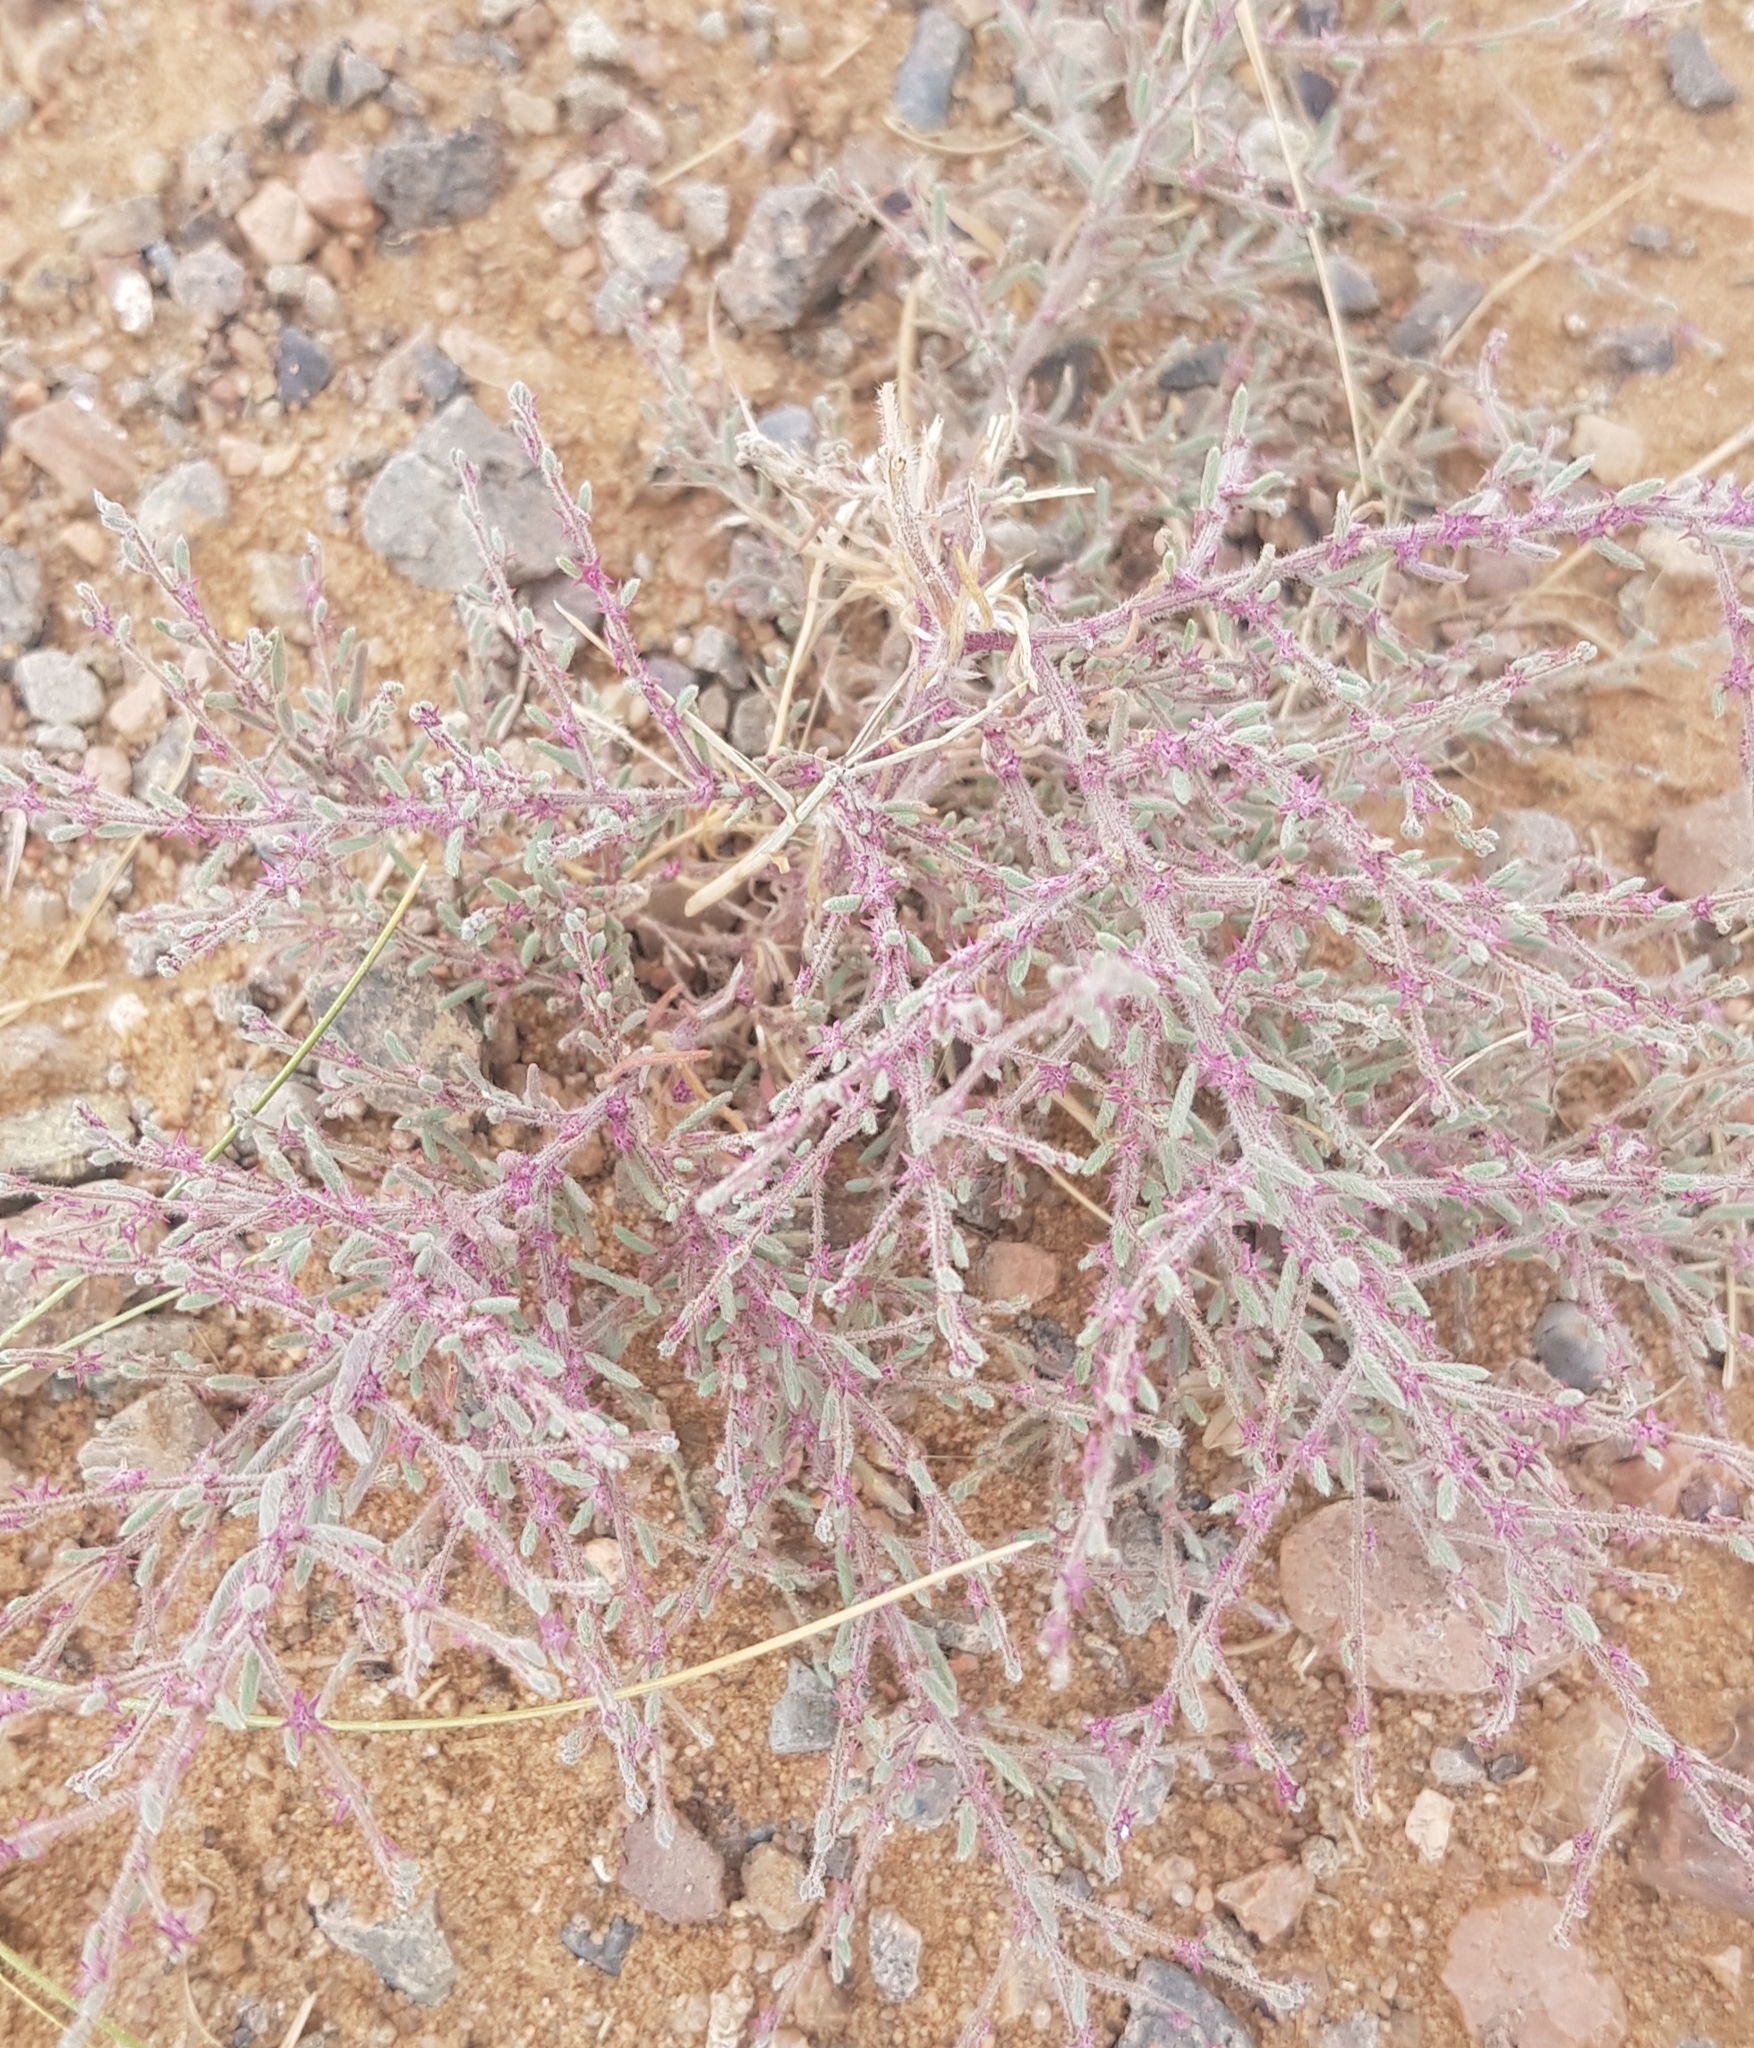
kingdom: Plantae
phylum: Tracheophyta
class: Magnoliopsida
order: Caryophyllales
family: Amaranthaceae
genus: Grubovia
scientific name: Grubovia dasyphylla
